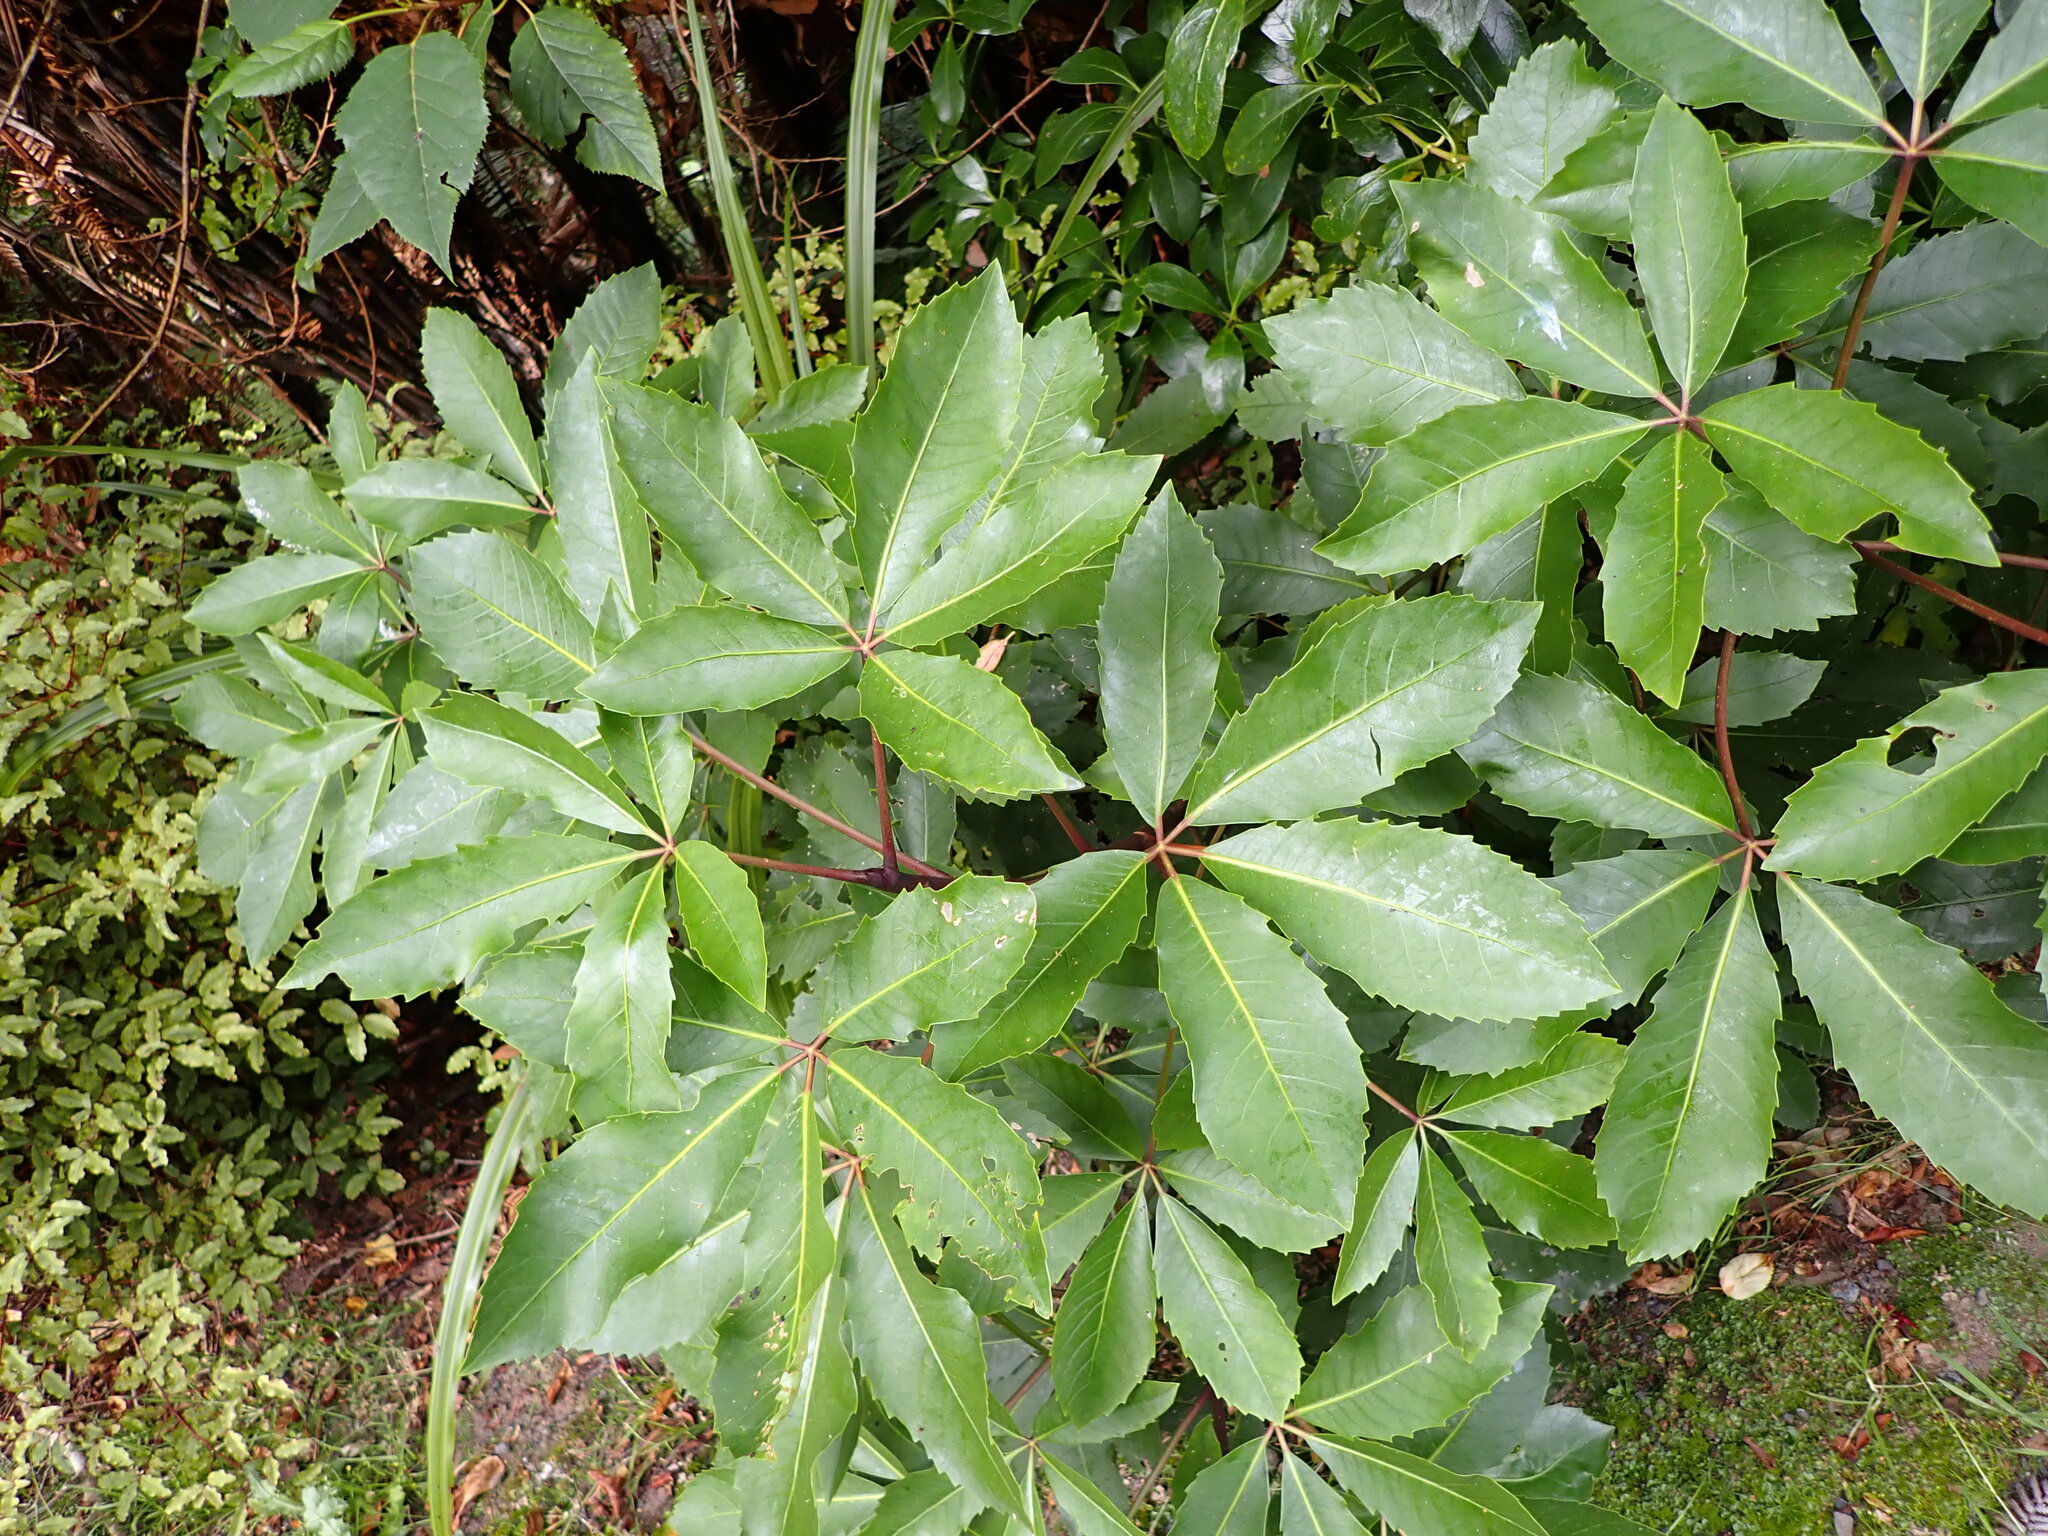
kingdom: Plantae
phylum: Tracheophyta
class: Magnoliopsida
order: Apiales
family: Araliaceae
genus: Neopanax
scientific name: Neopanax arboreus
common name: Five-fingers
